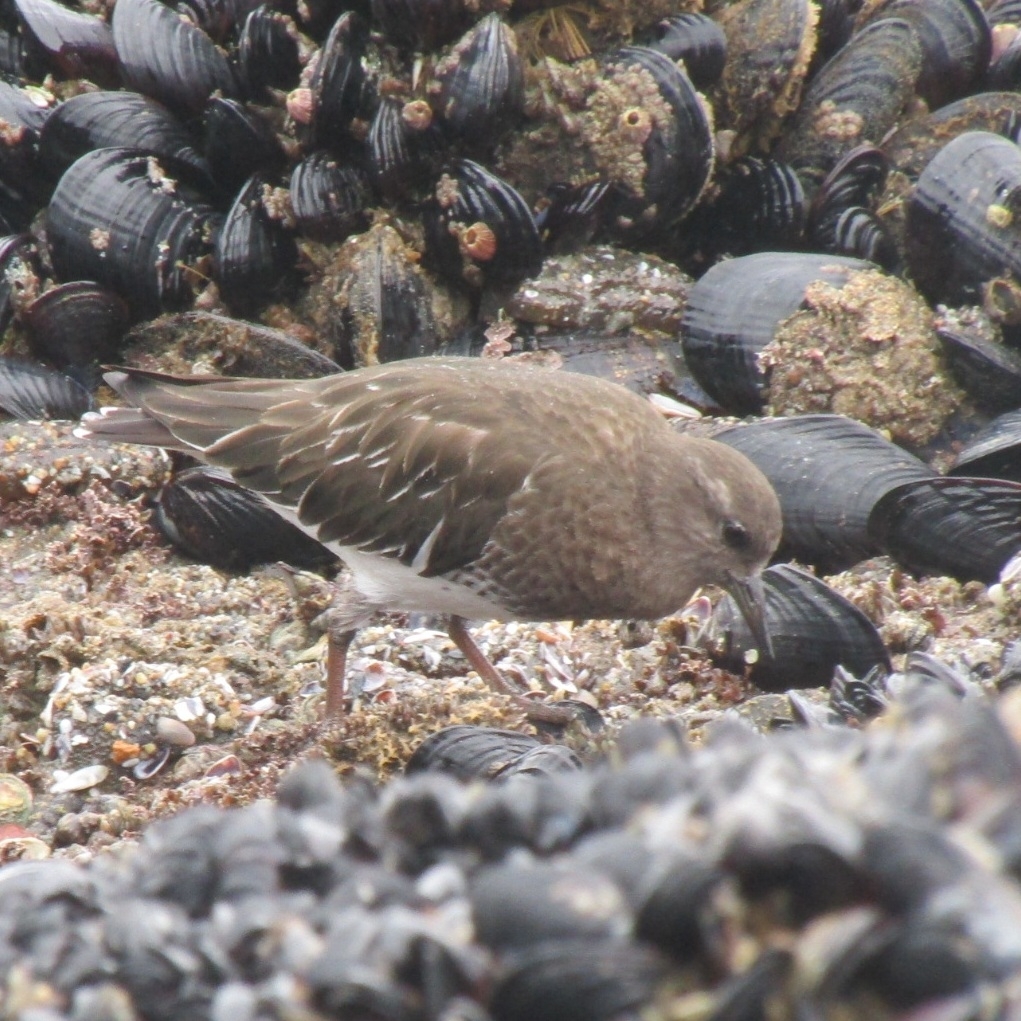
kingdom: Animalia
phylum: Chordata
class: Aves
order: Charadriiformes
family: Scolopacidae
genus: Arenaria
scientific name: Arenaria melanocephala
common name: Black turnstone
